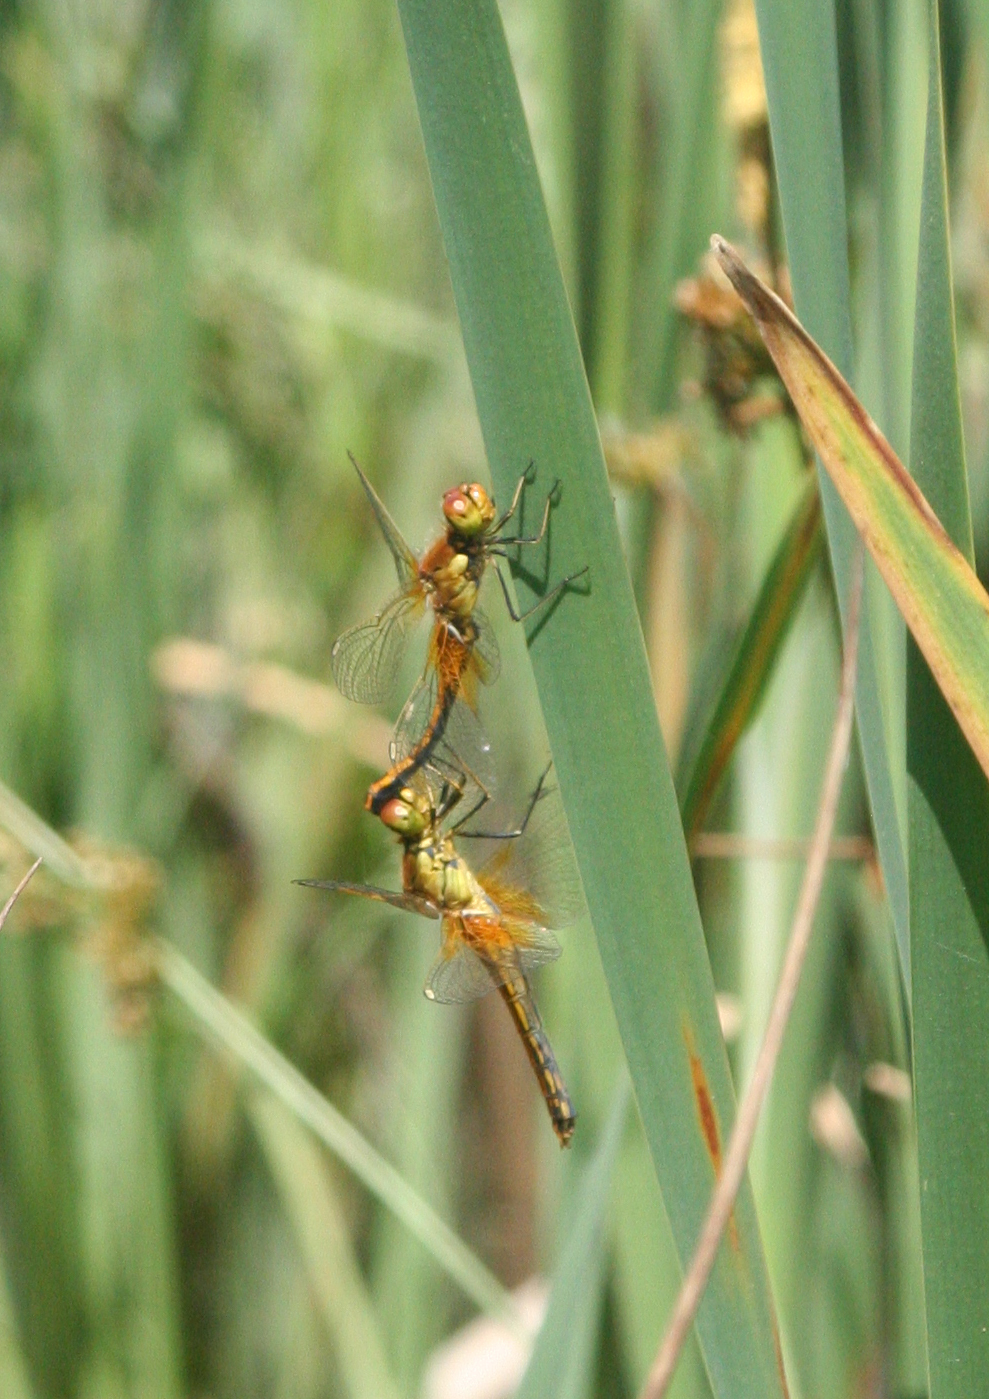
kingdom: Animalia
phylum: Arthropoda
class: Insecta
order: Odonata
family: Libellulidae
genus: Sympetrum
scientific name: Sympetrum flaveolum
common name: Yellow-winged darter
